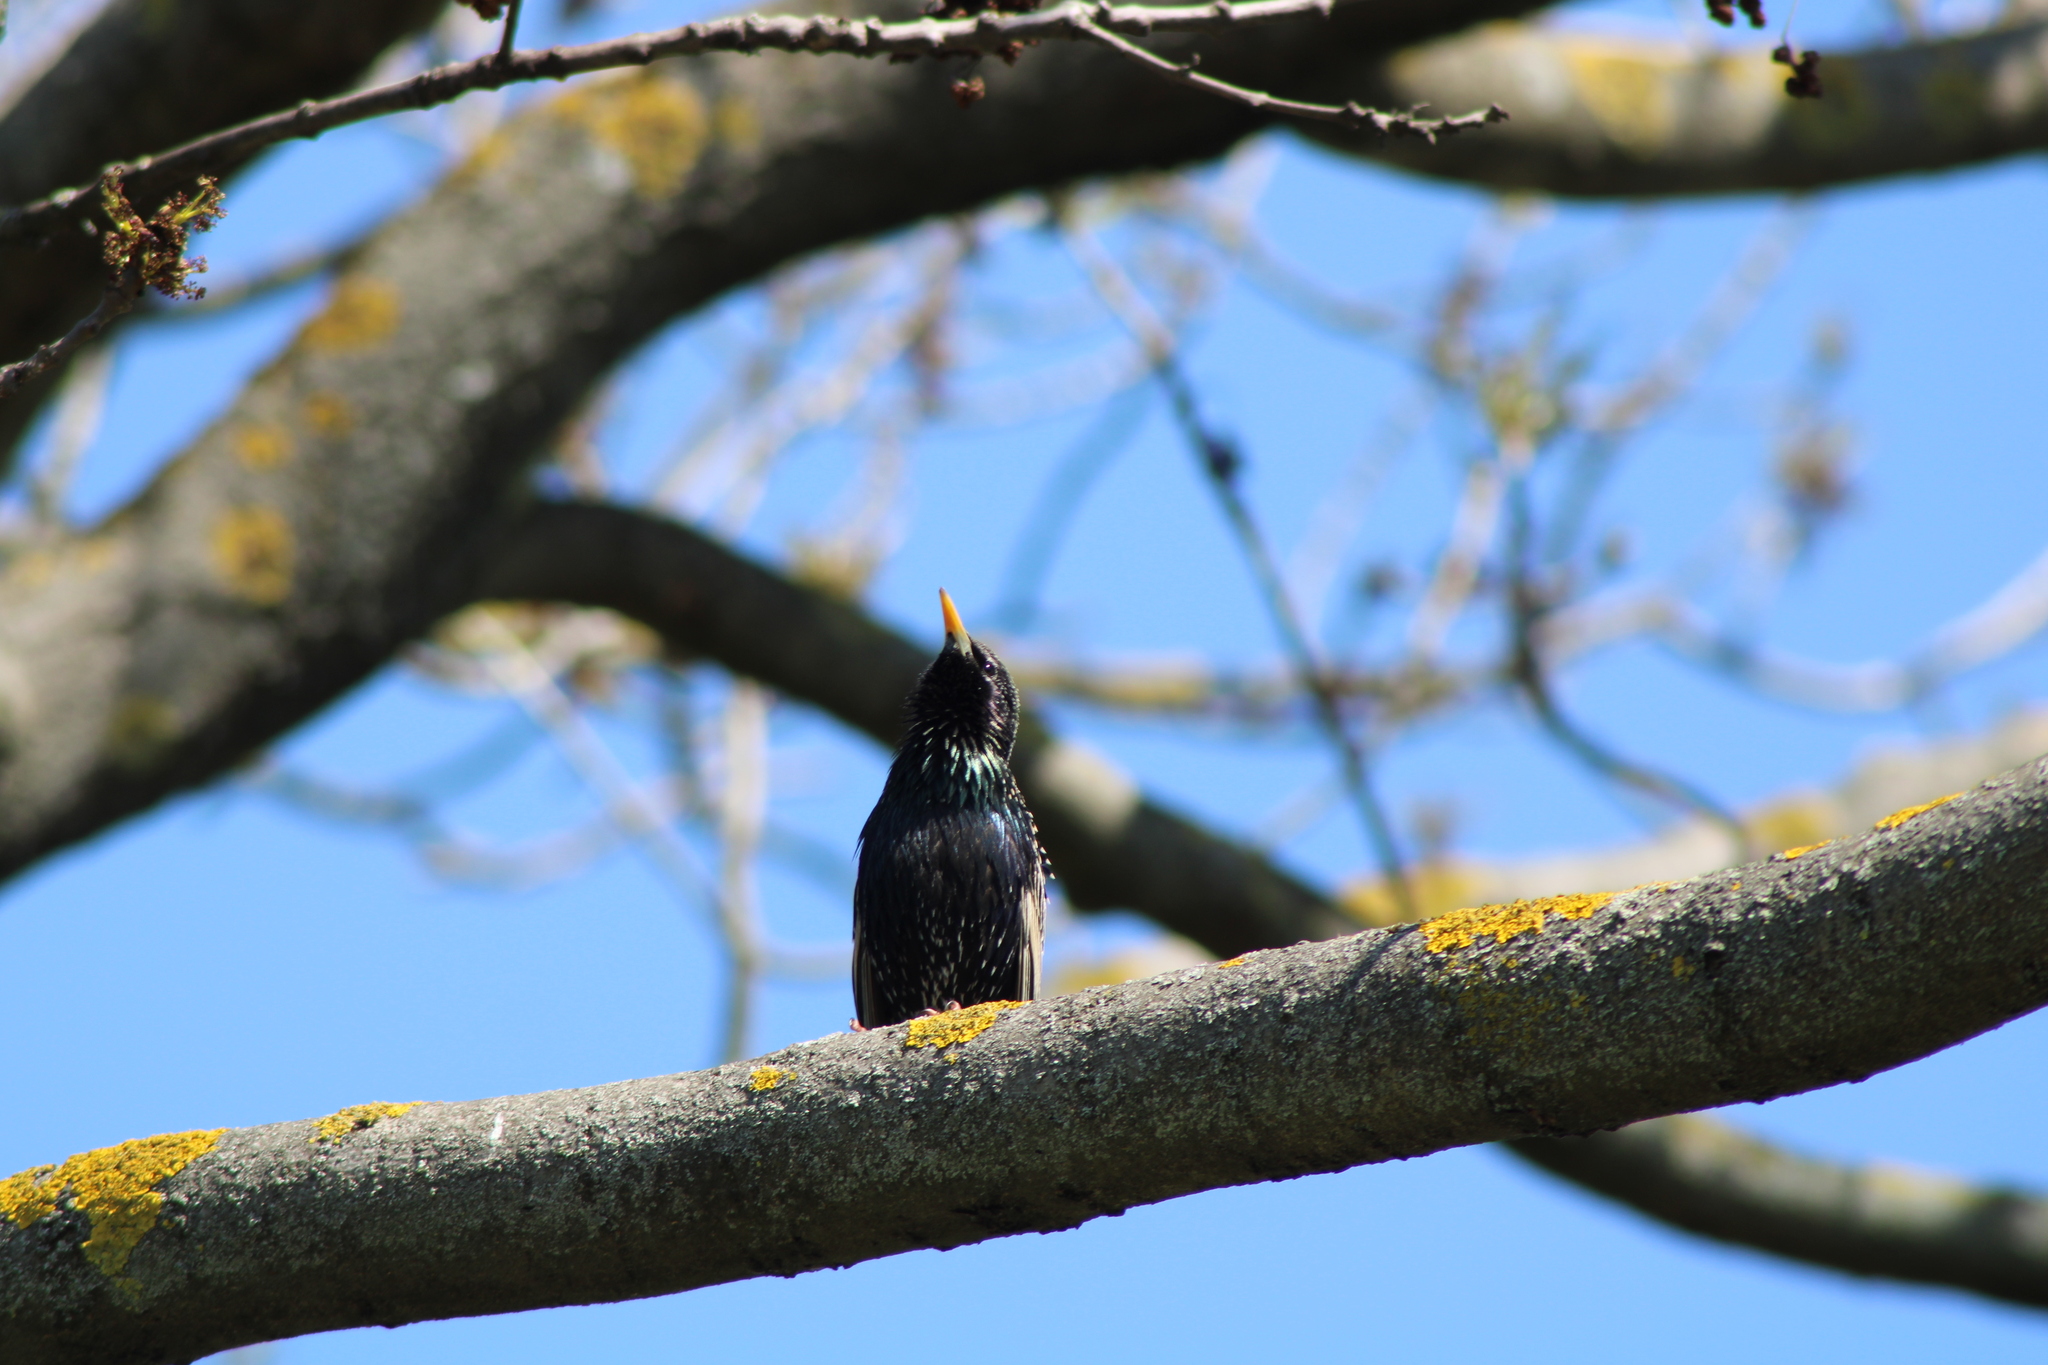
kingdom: Animalia
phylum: Chordata
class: Aves
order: Passeriformes
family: Sturnidae
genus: Sturnus
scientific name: Sturnus vulgaris
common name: Common starling
